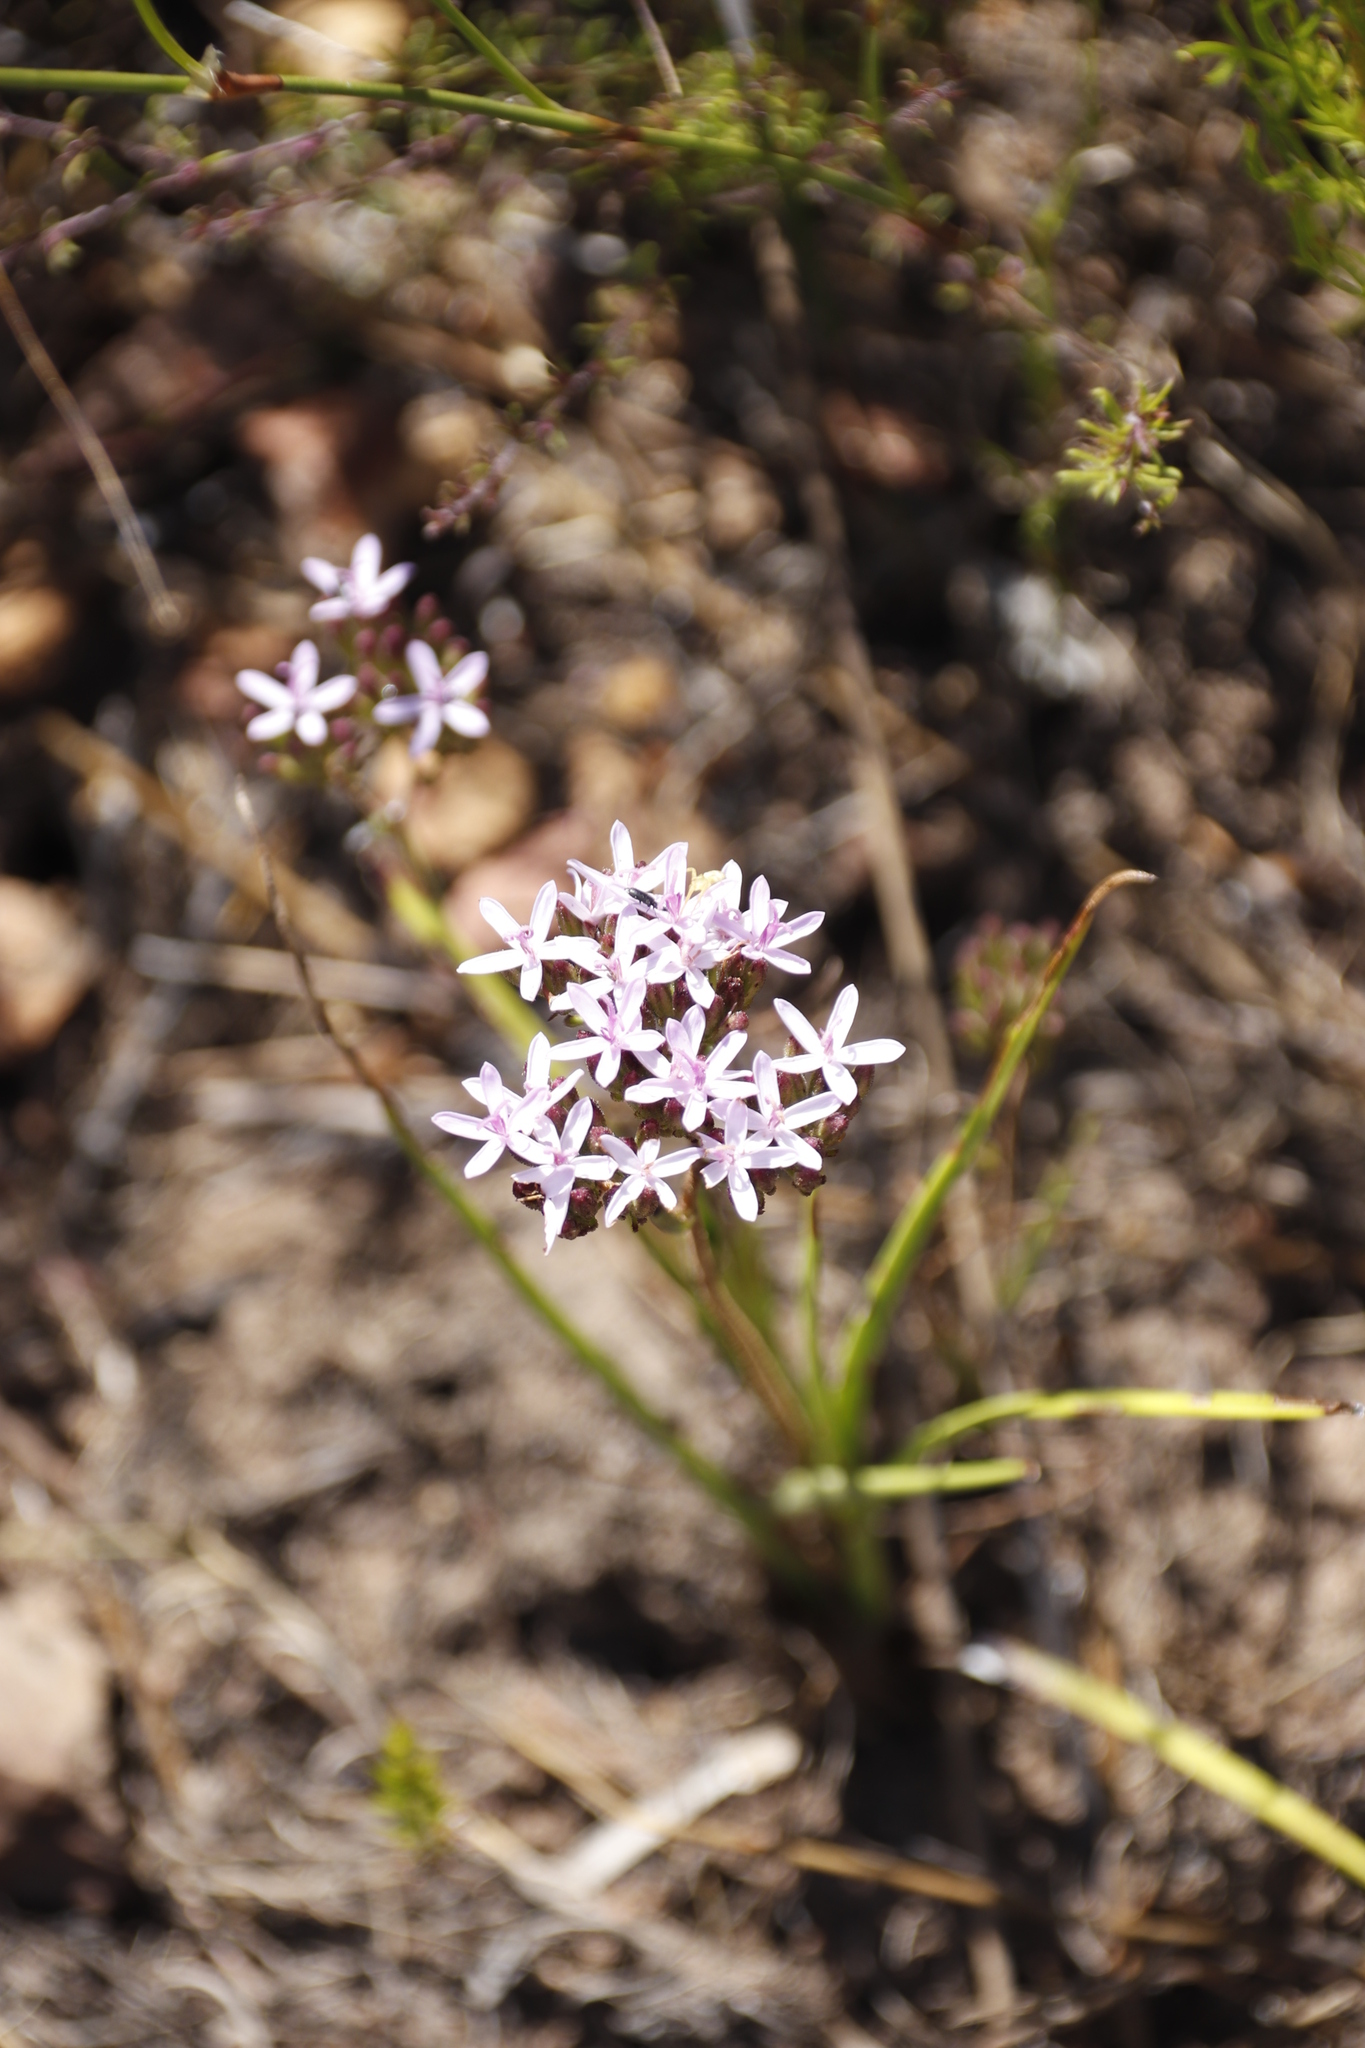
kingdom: Plantae
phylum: Tracheophyta
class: Magnoliopsida
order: Asterales
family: Asteraceae
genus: Corymbium
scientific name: Corymbium africanum
